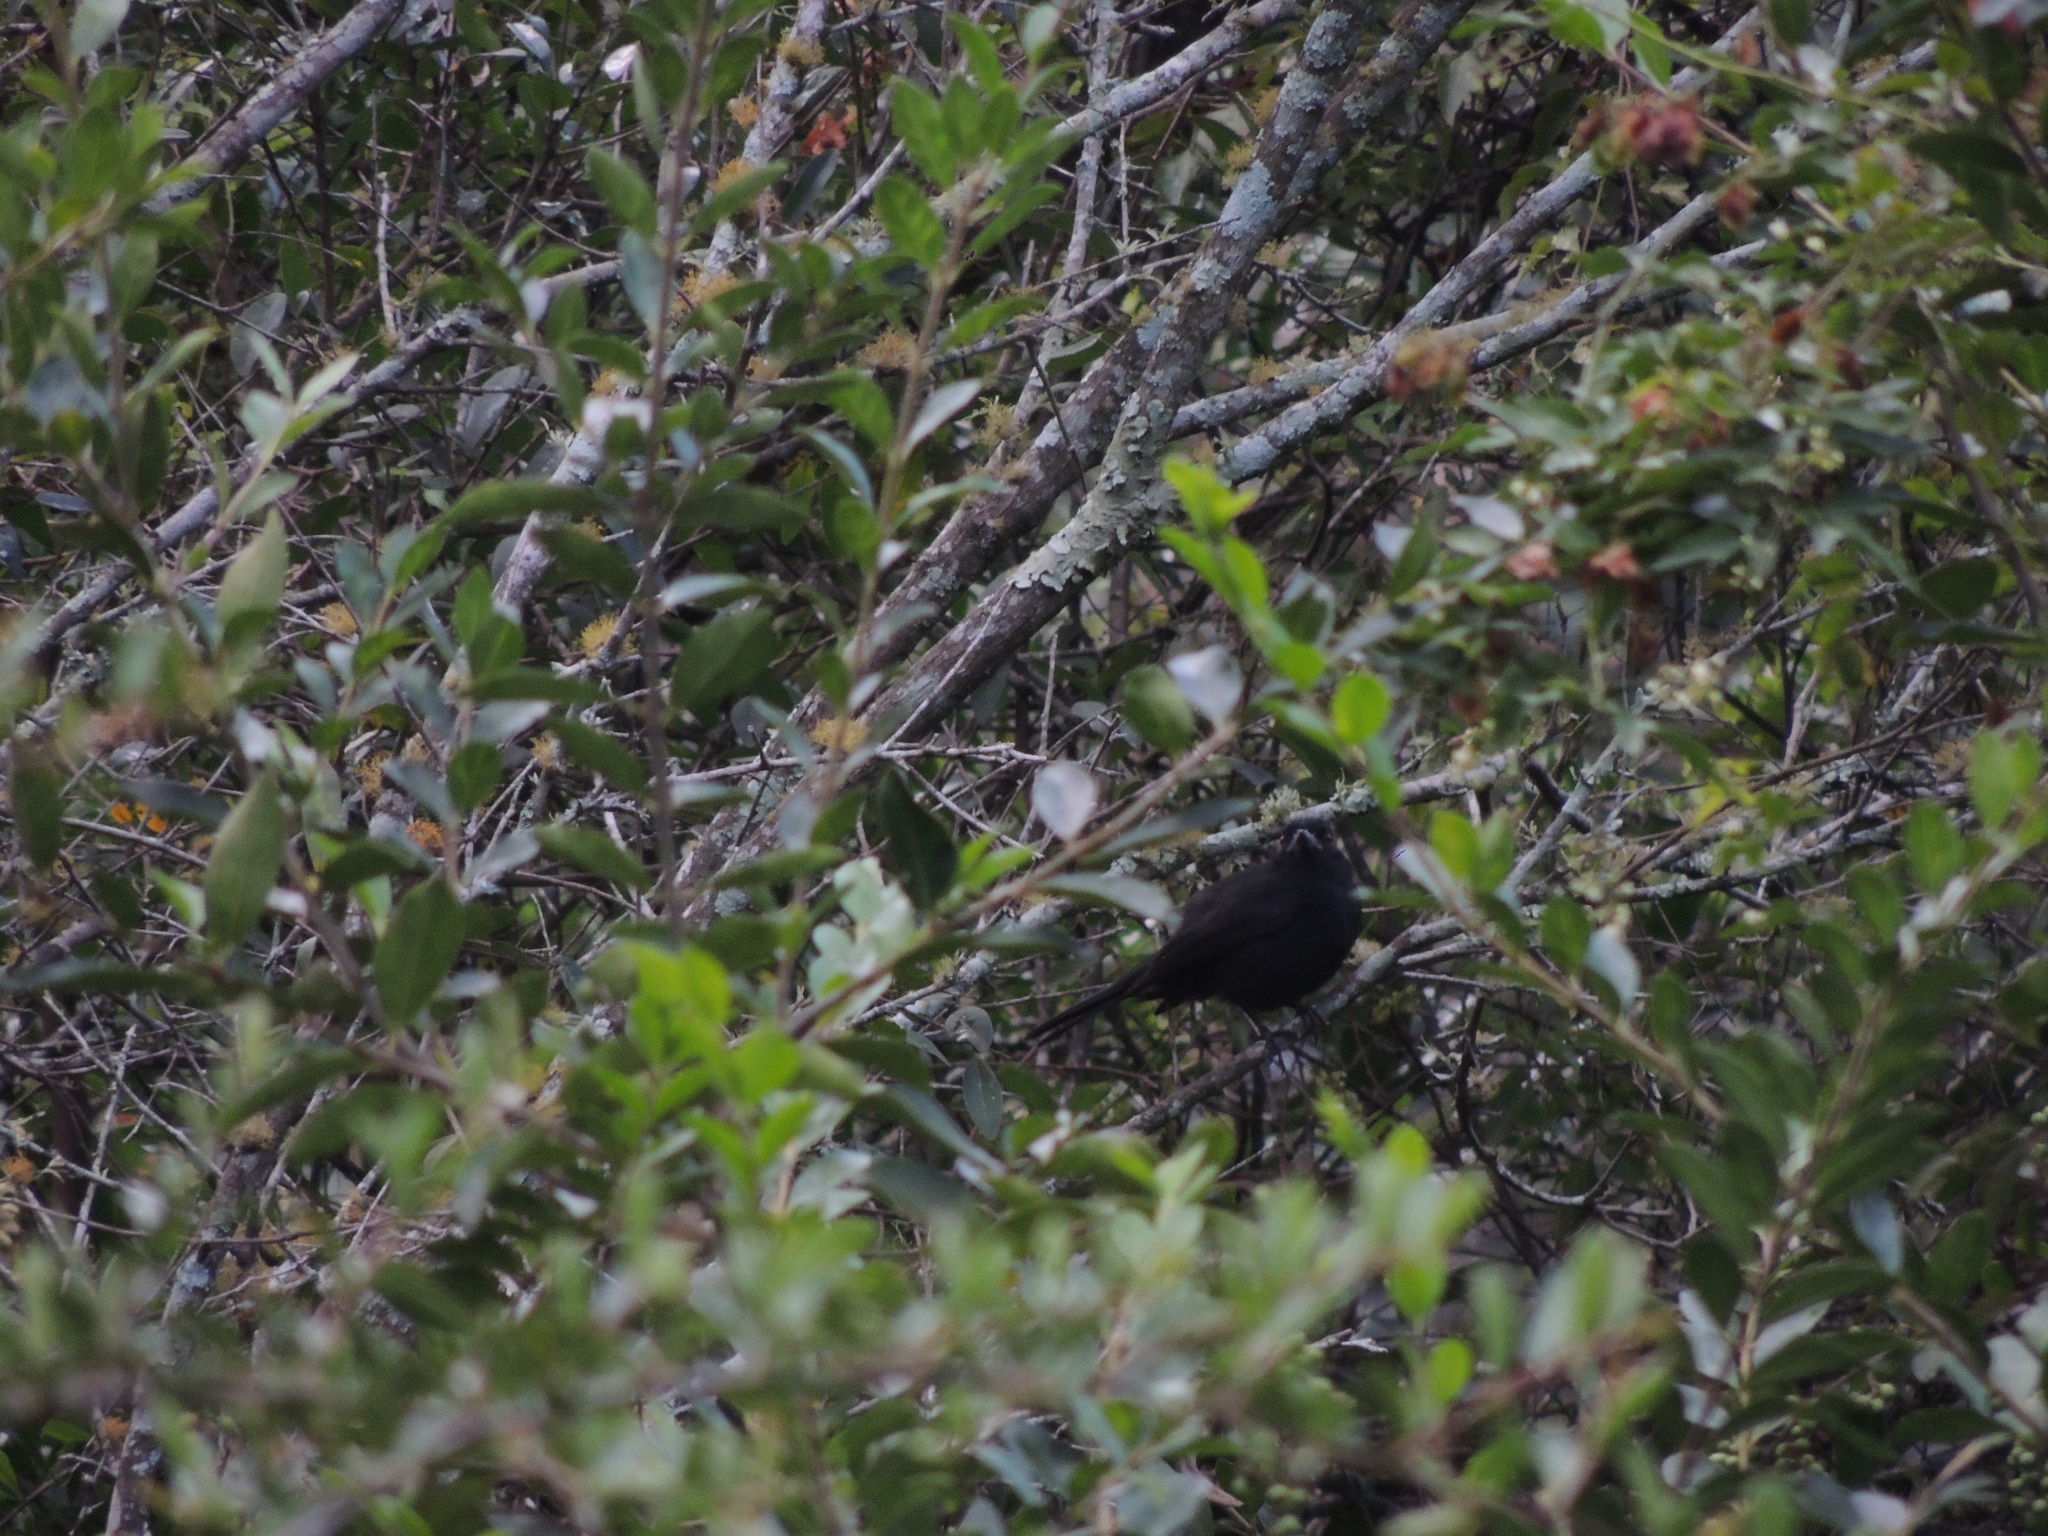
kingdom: Animalia
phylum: Chordata
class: Aves
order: Passeriformes
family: Tyrannidae
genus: Knipolegus
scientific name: Knipolegus cyanirostris
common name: Blue-billed black tyrant
